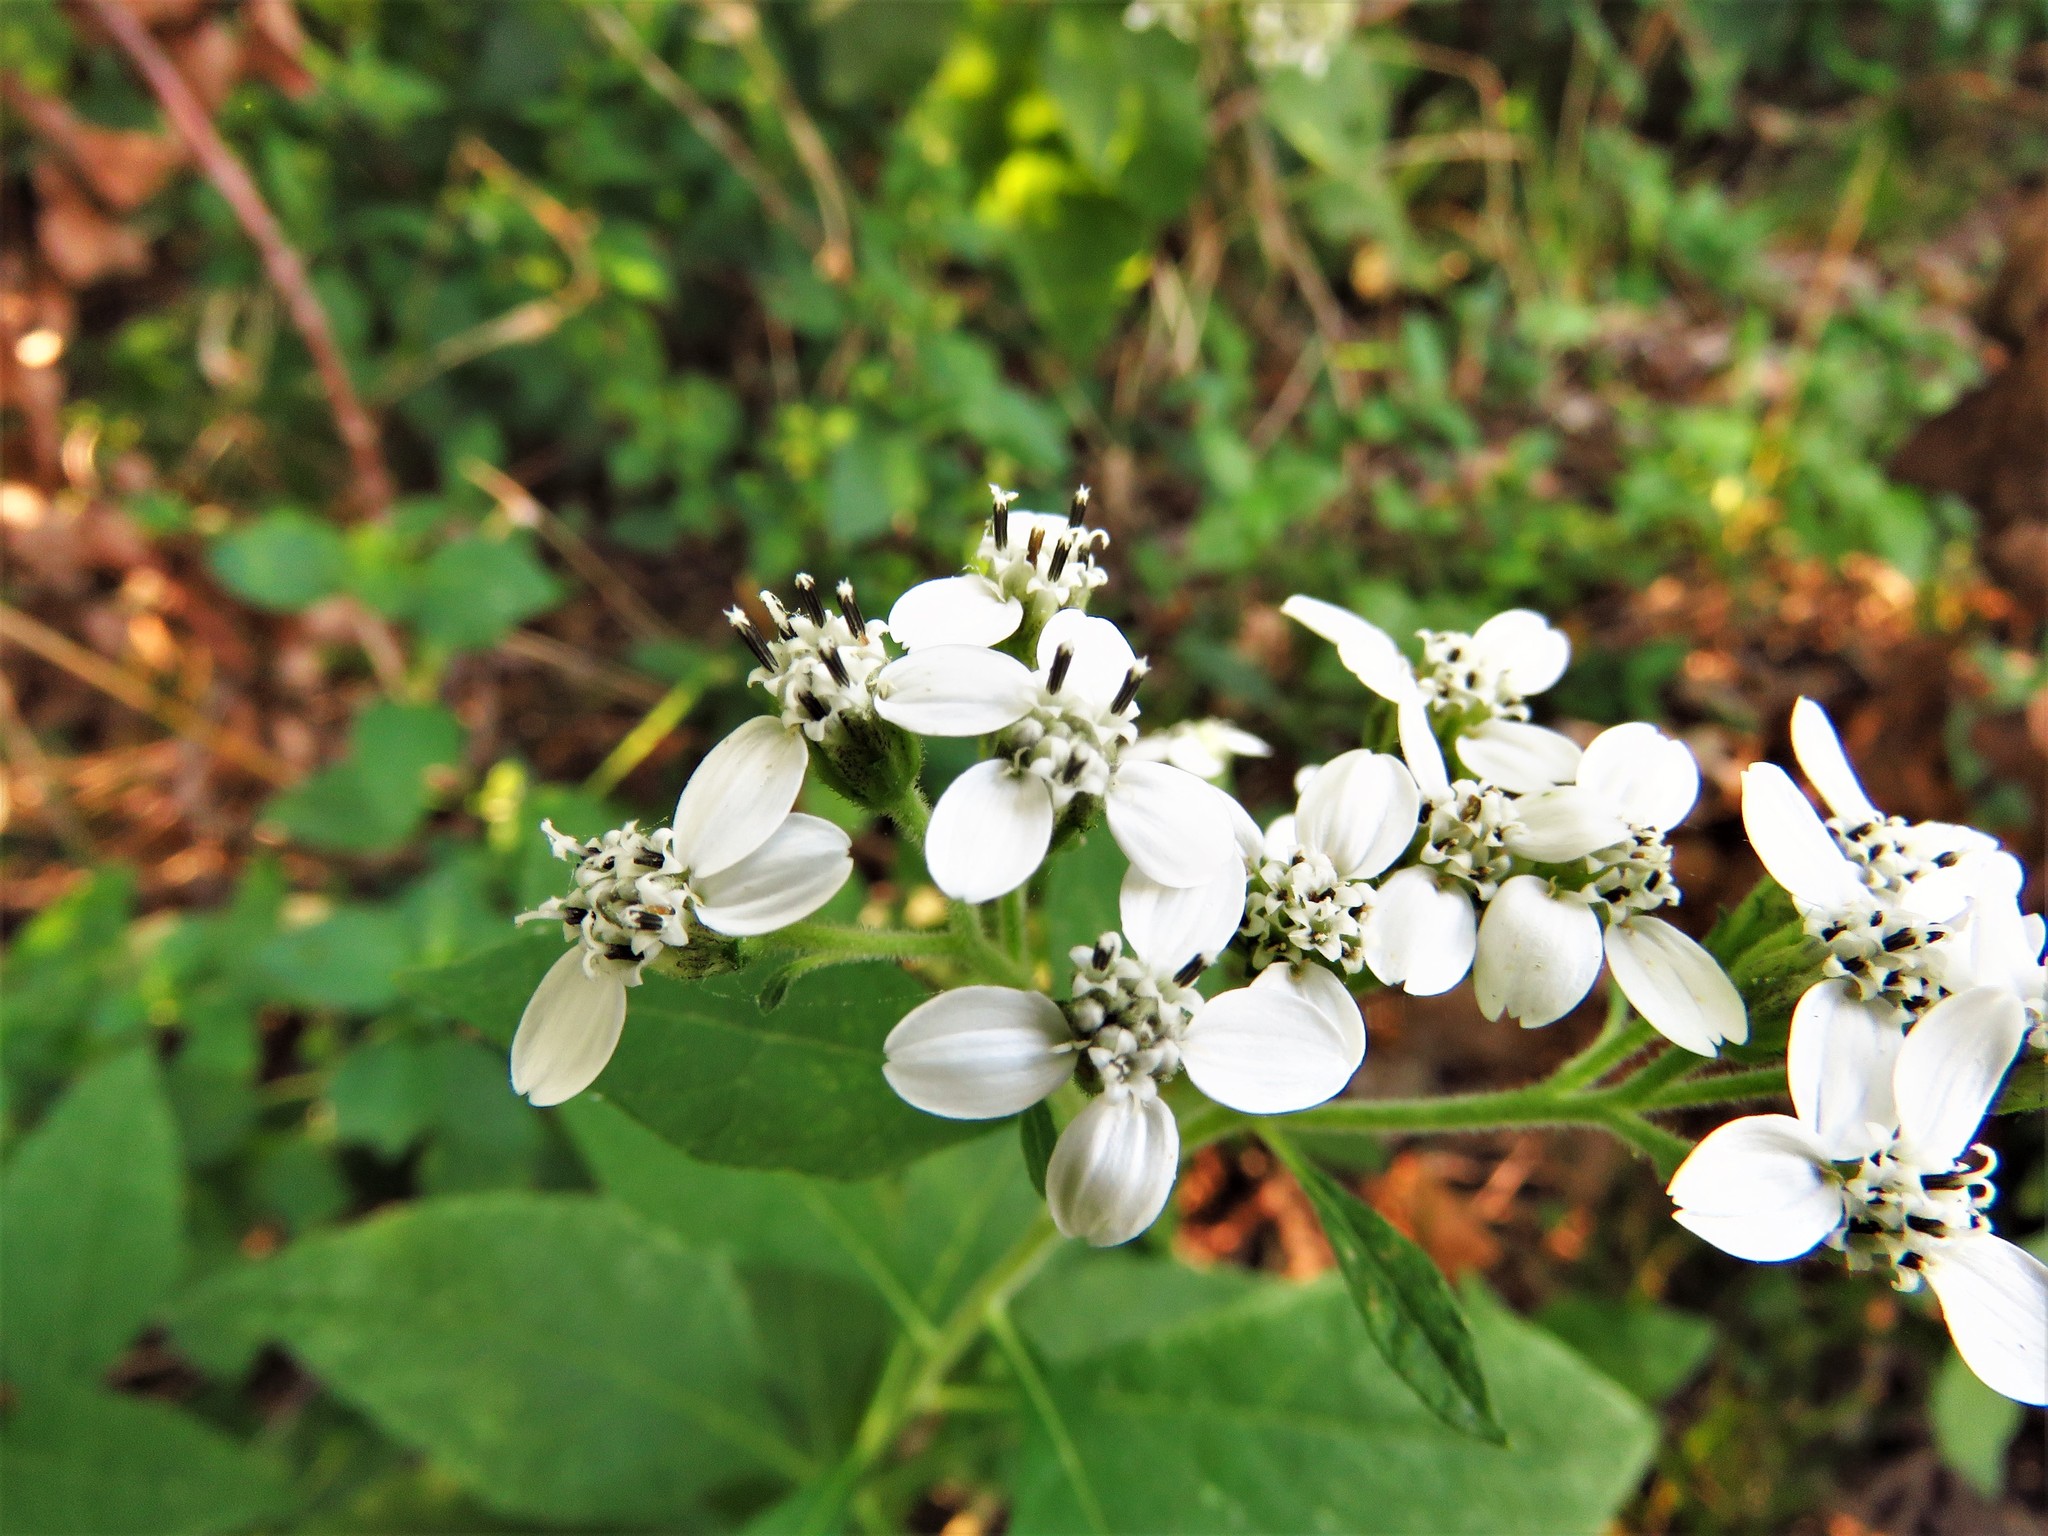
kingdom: Plantae
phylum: Tracheophyta
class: Magnoliopsida
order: Asterales
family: Asteraceae
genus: Verbesina
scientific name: Verbesina virginica
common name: Frostweed
